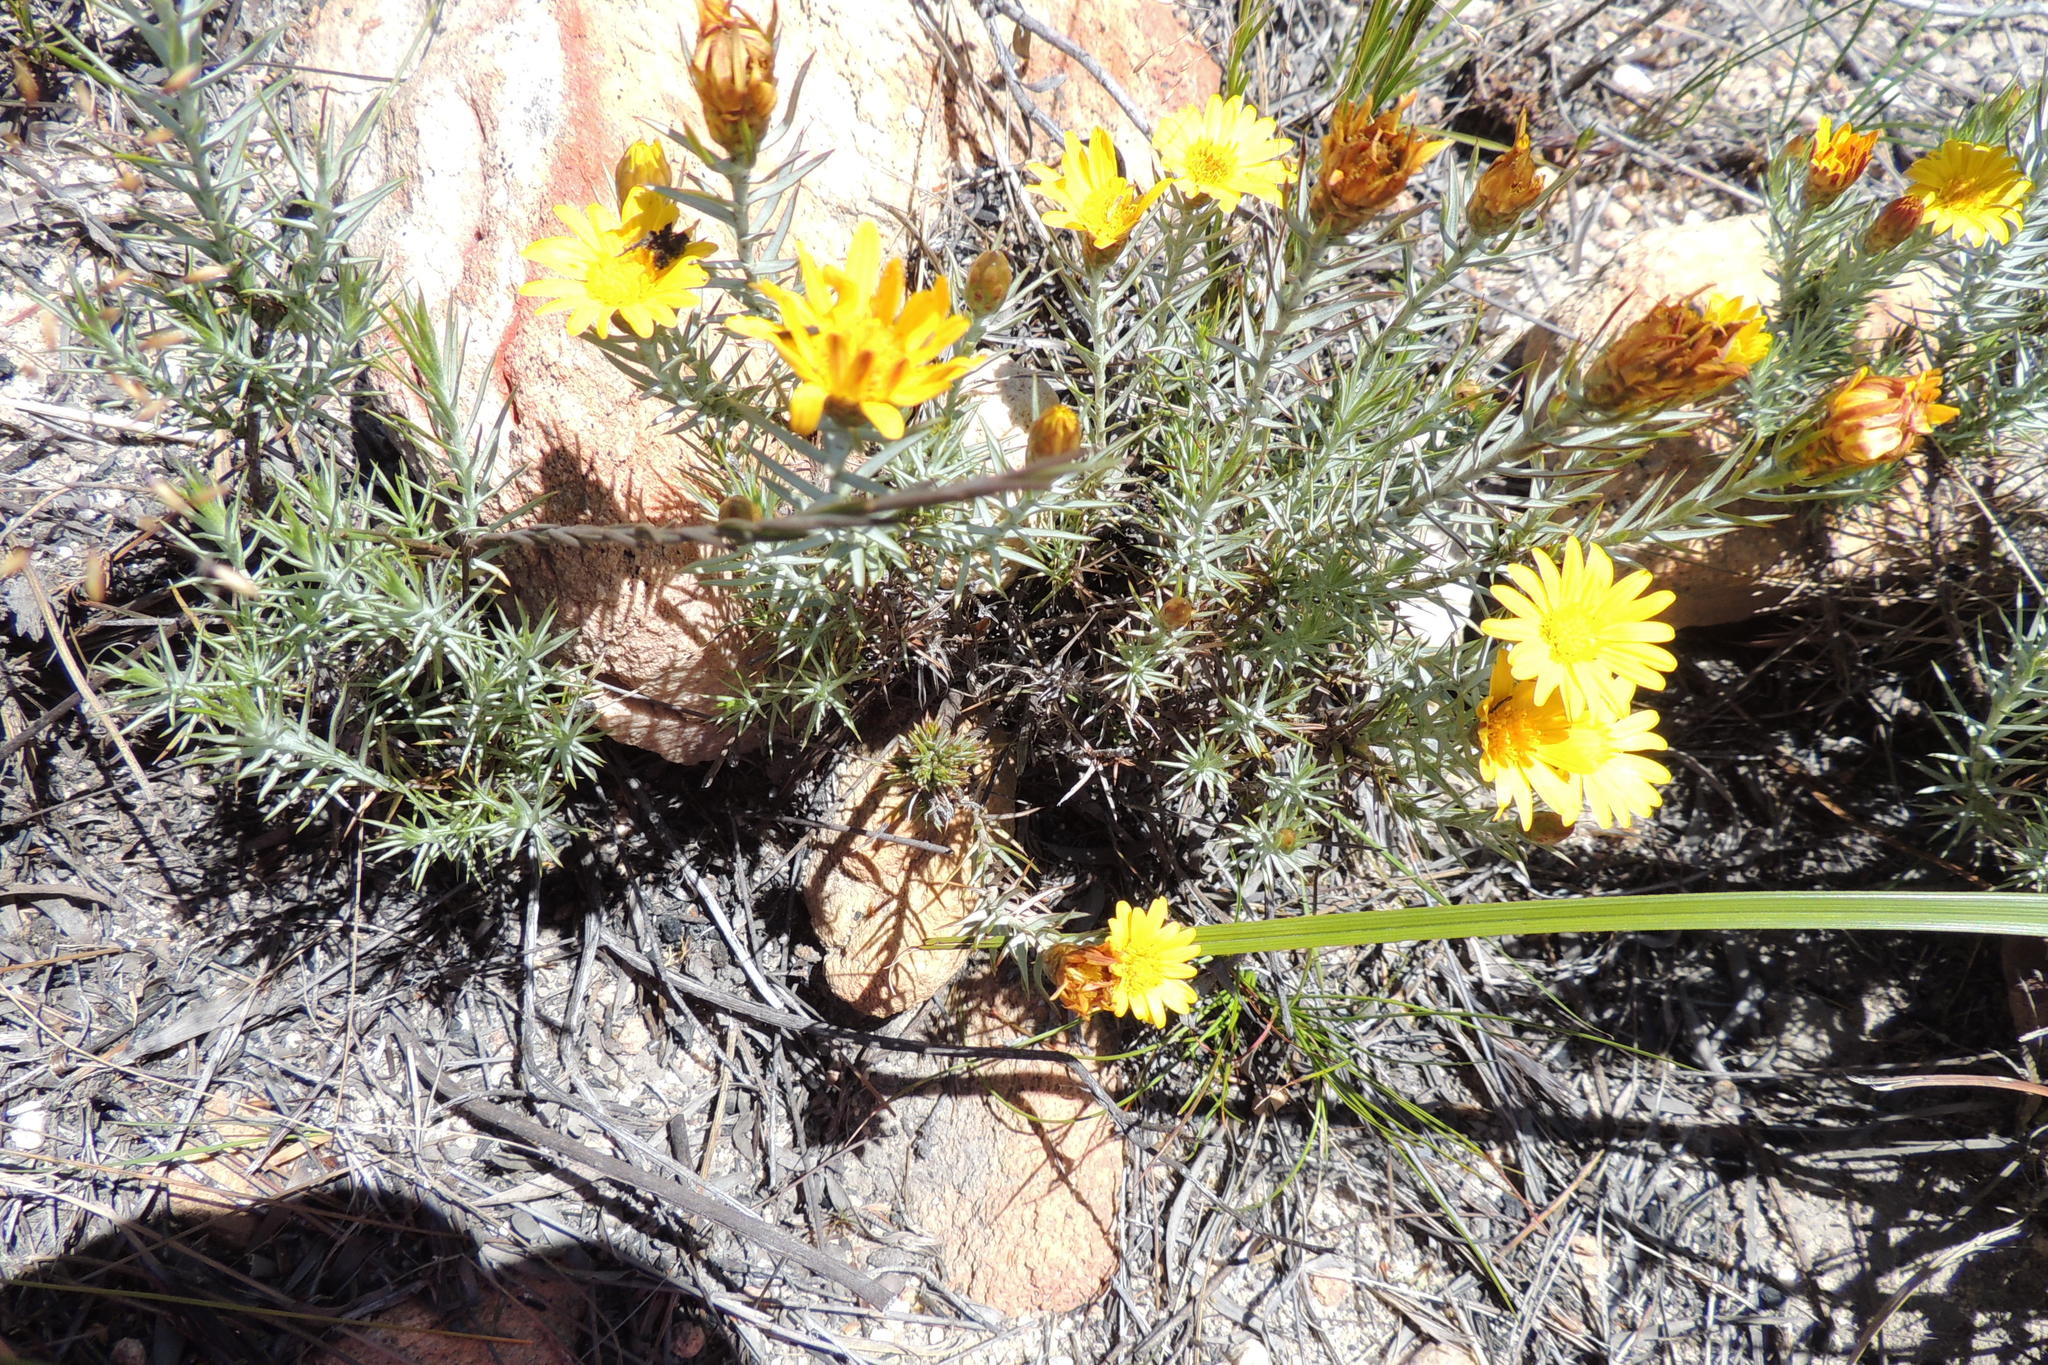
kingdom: Plantae
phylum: Tracheophyta
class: Magnoliopsida
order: Asterales
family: Asteraceae
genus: Oedera
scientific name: Oedera pungens
